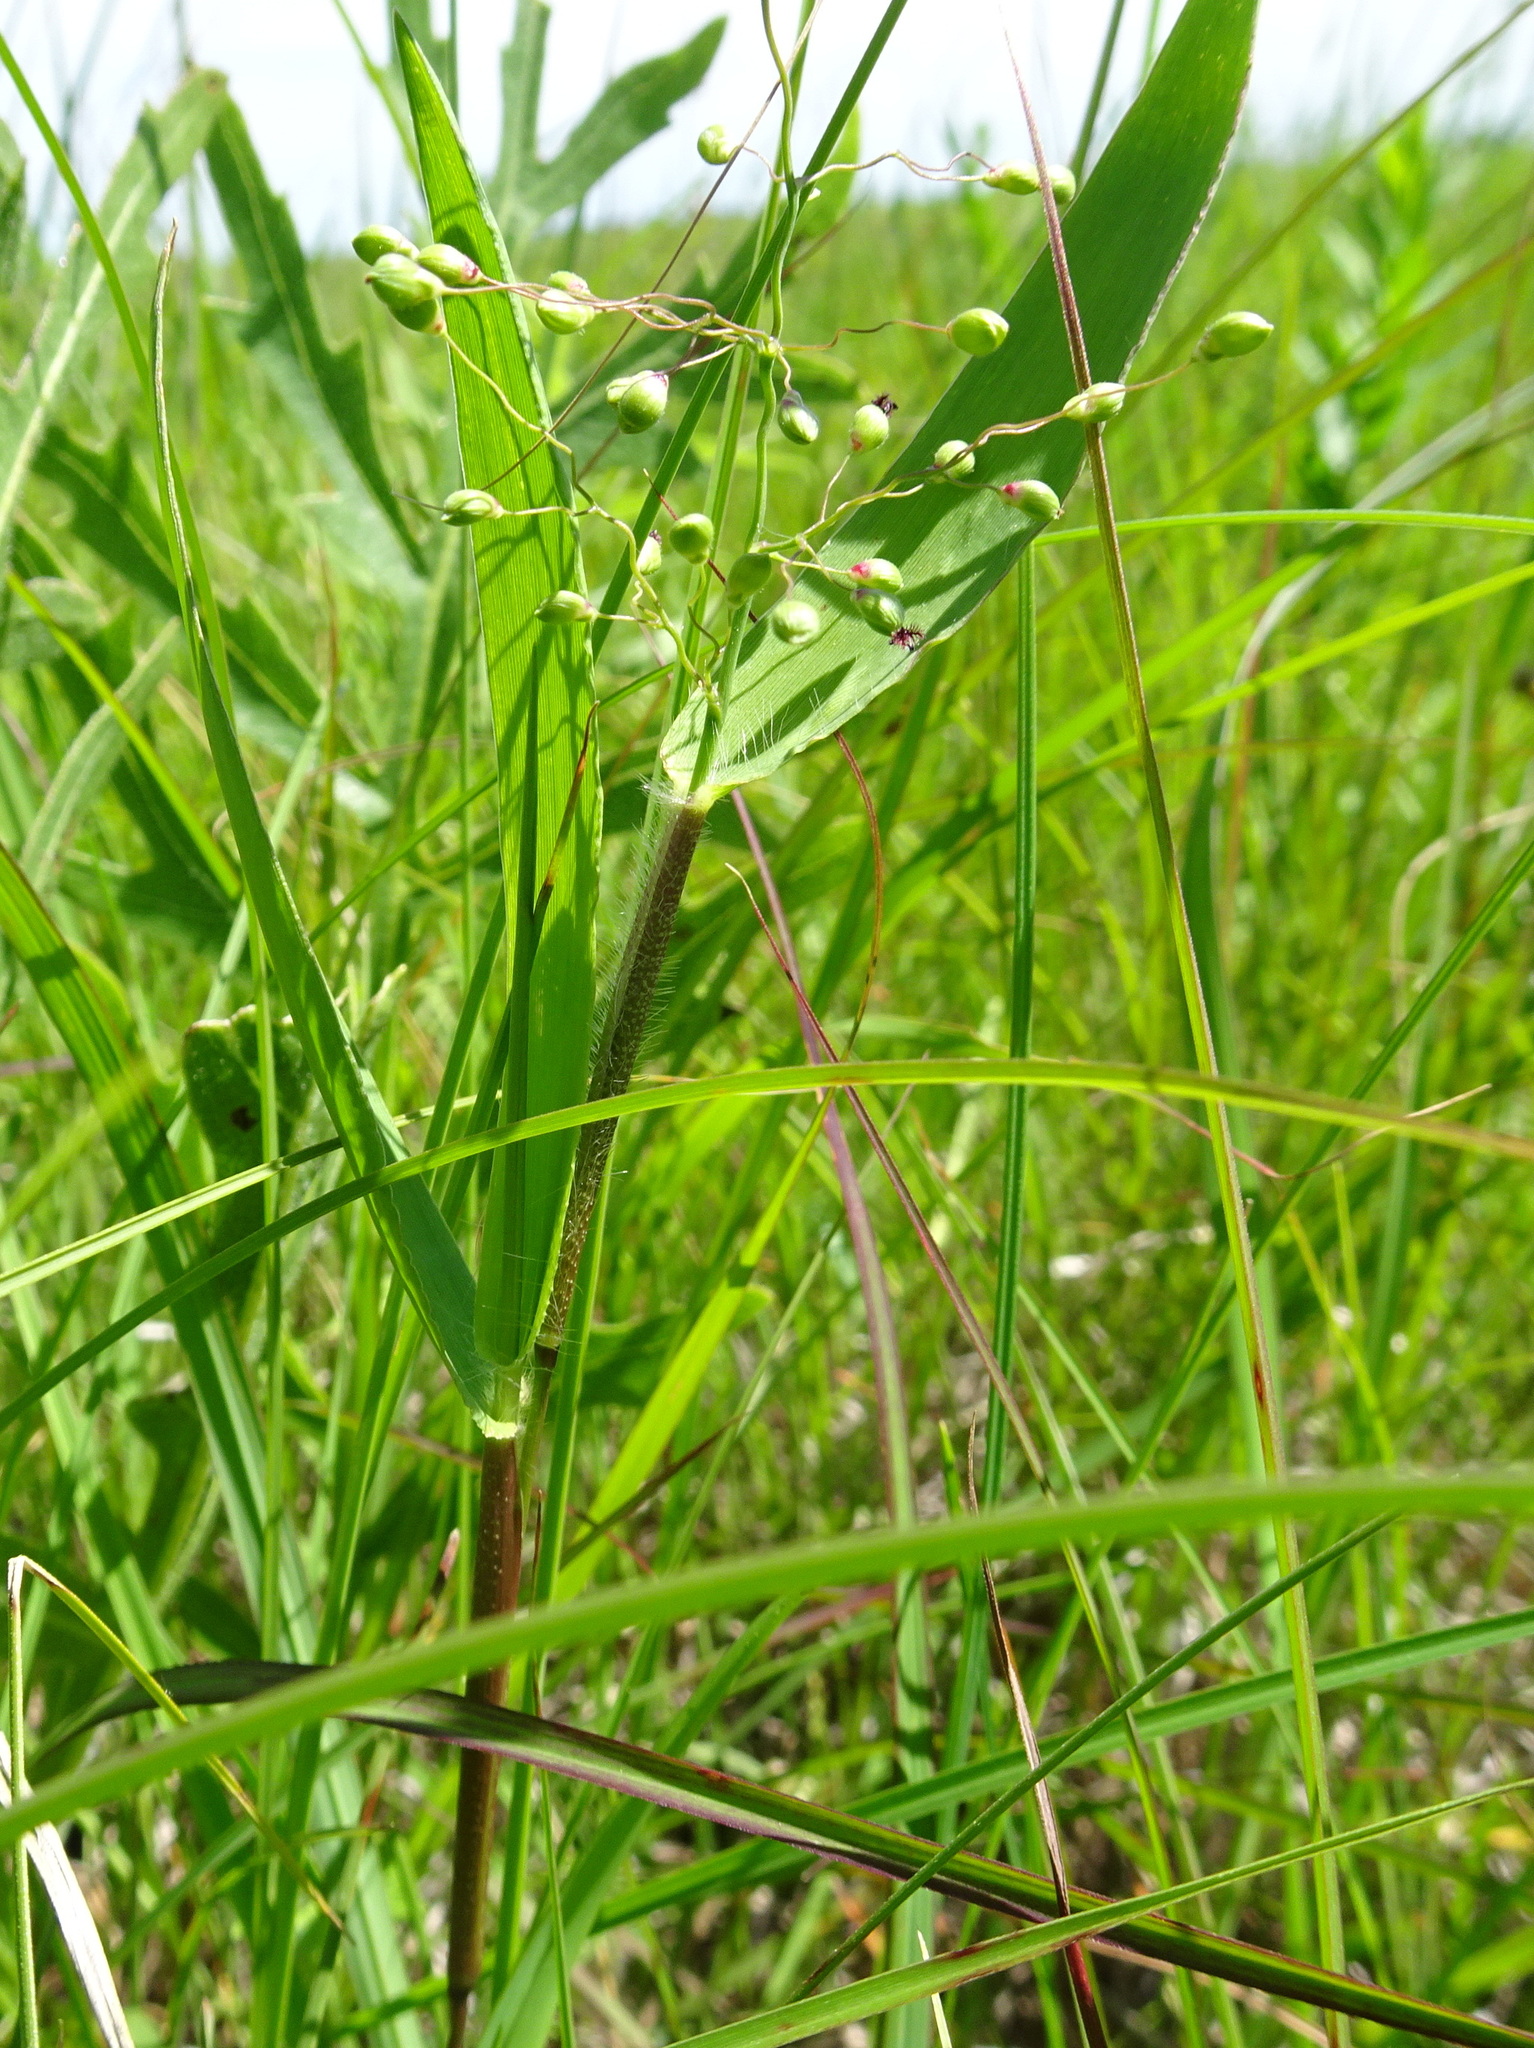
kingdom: Plantae
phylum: Tracheophyta
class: Liliopsida
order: Poales
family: Poaceae
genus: Dichanthelium
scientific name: Dichanthelium scribnerianum
